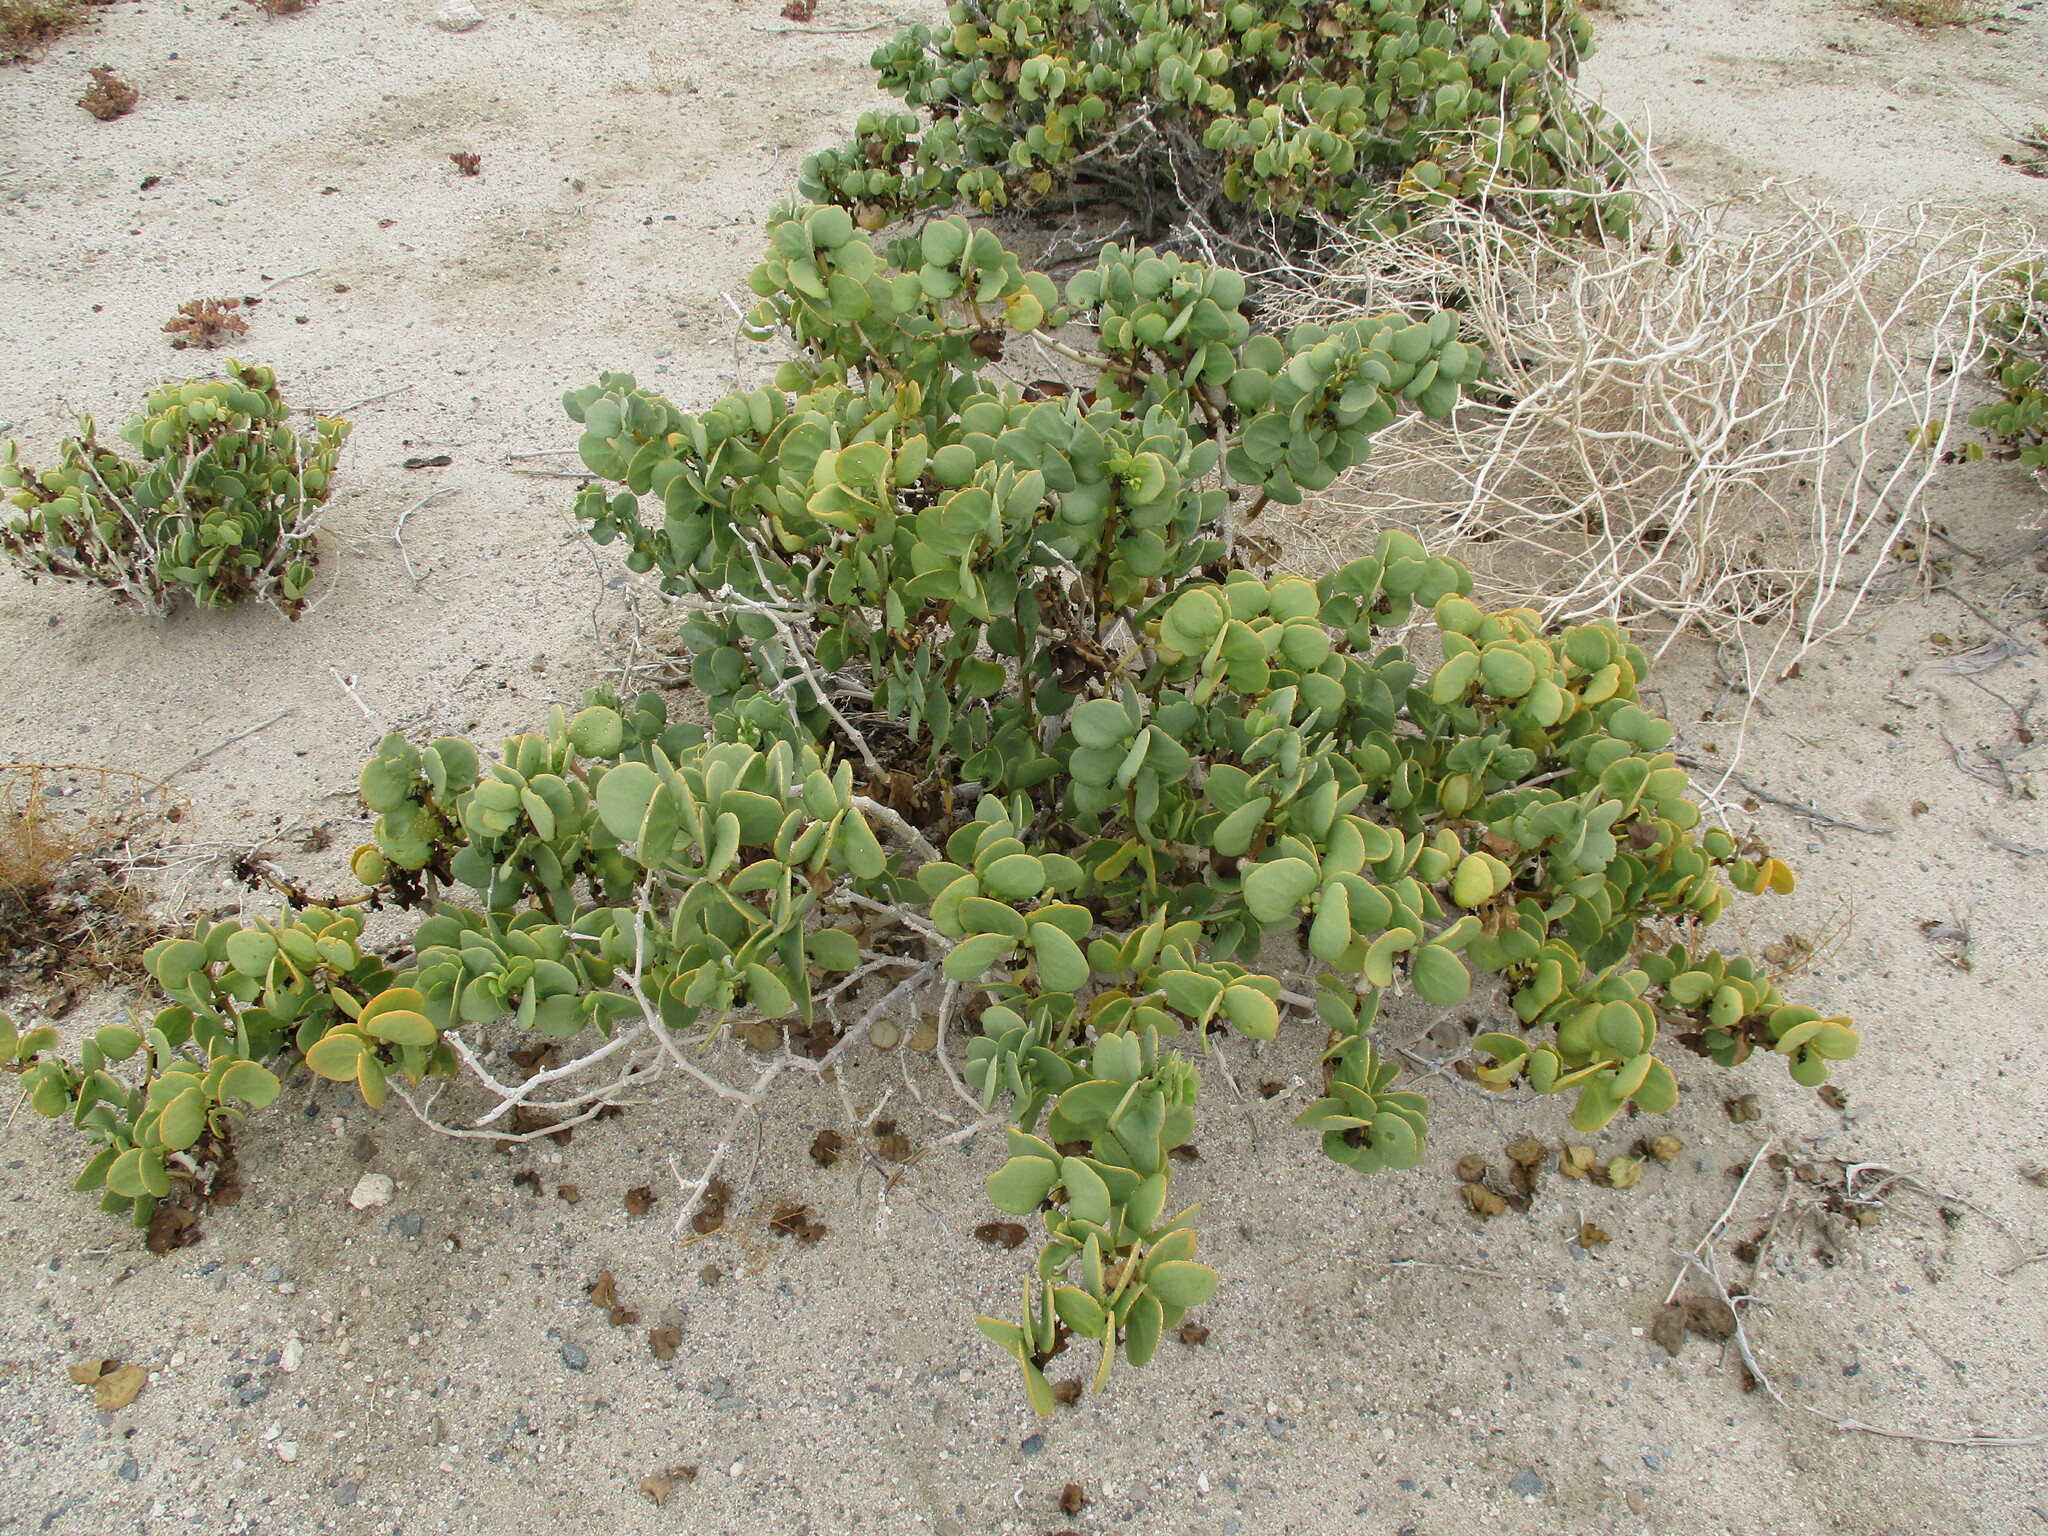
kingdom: Plantae
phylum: Tracheophyta
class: Magnoliopsida
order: Zygophyllales
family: Zygophyllaceae
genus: Tetraena
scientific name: Tetraena stapfii
